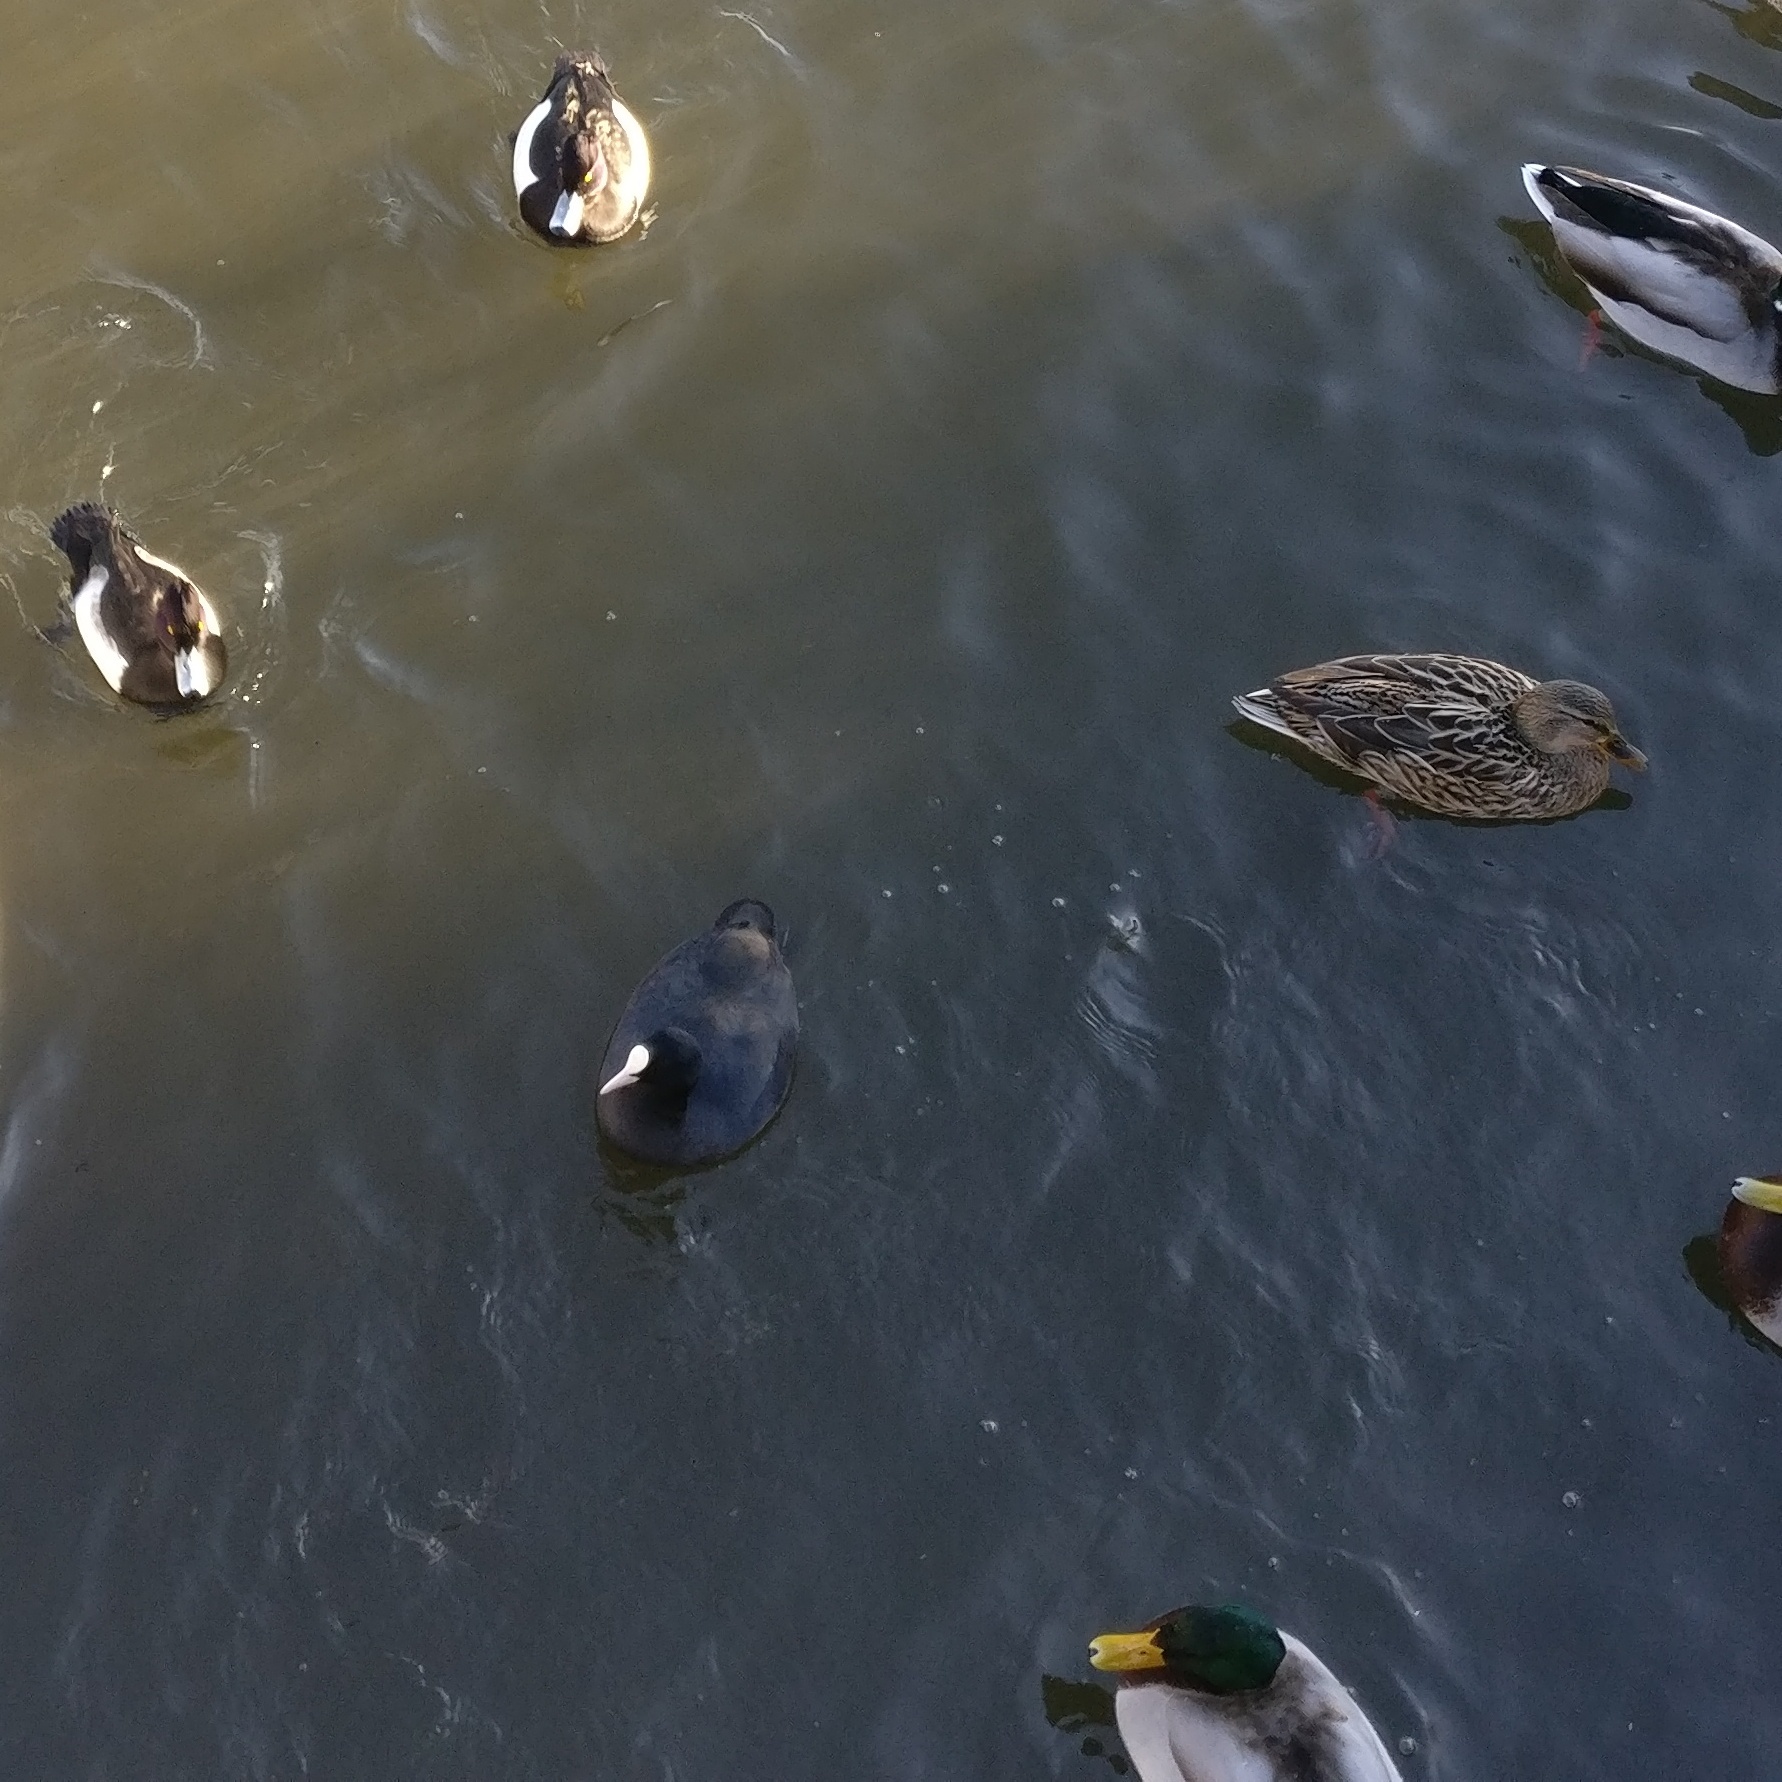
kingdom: Animalia
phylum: Chordata
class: Aves
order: Gruiformes
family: Rallidae
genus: Fulica
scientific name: Fulica atra
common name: Eurasian coot
